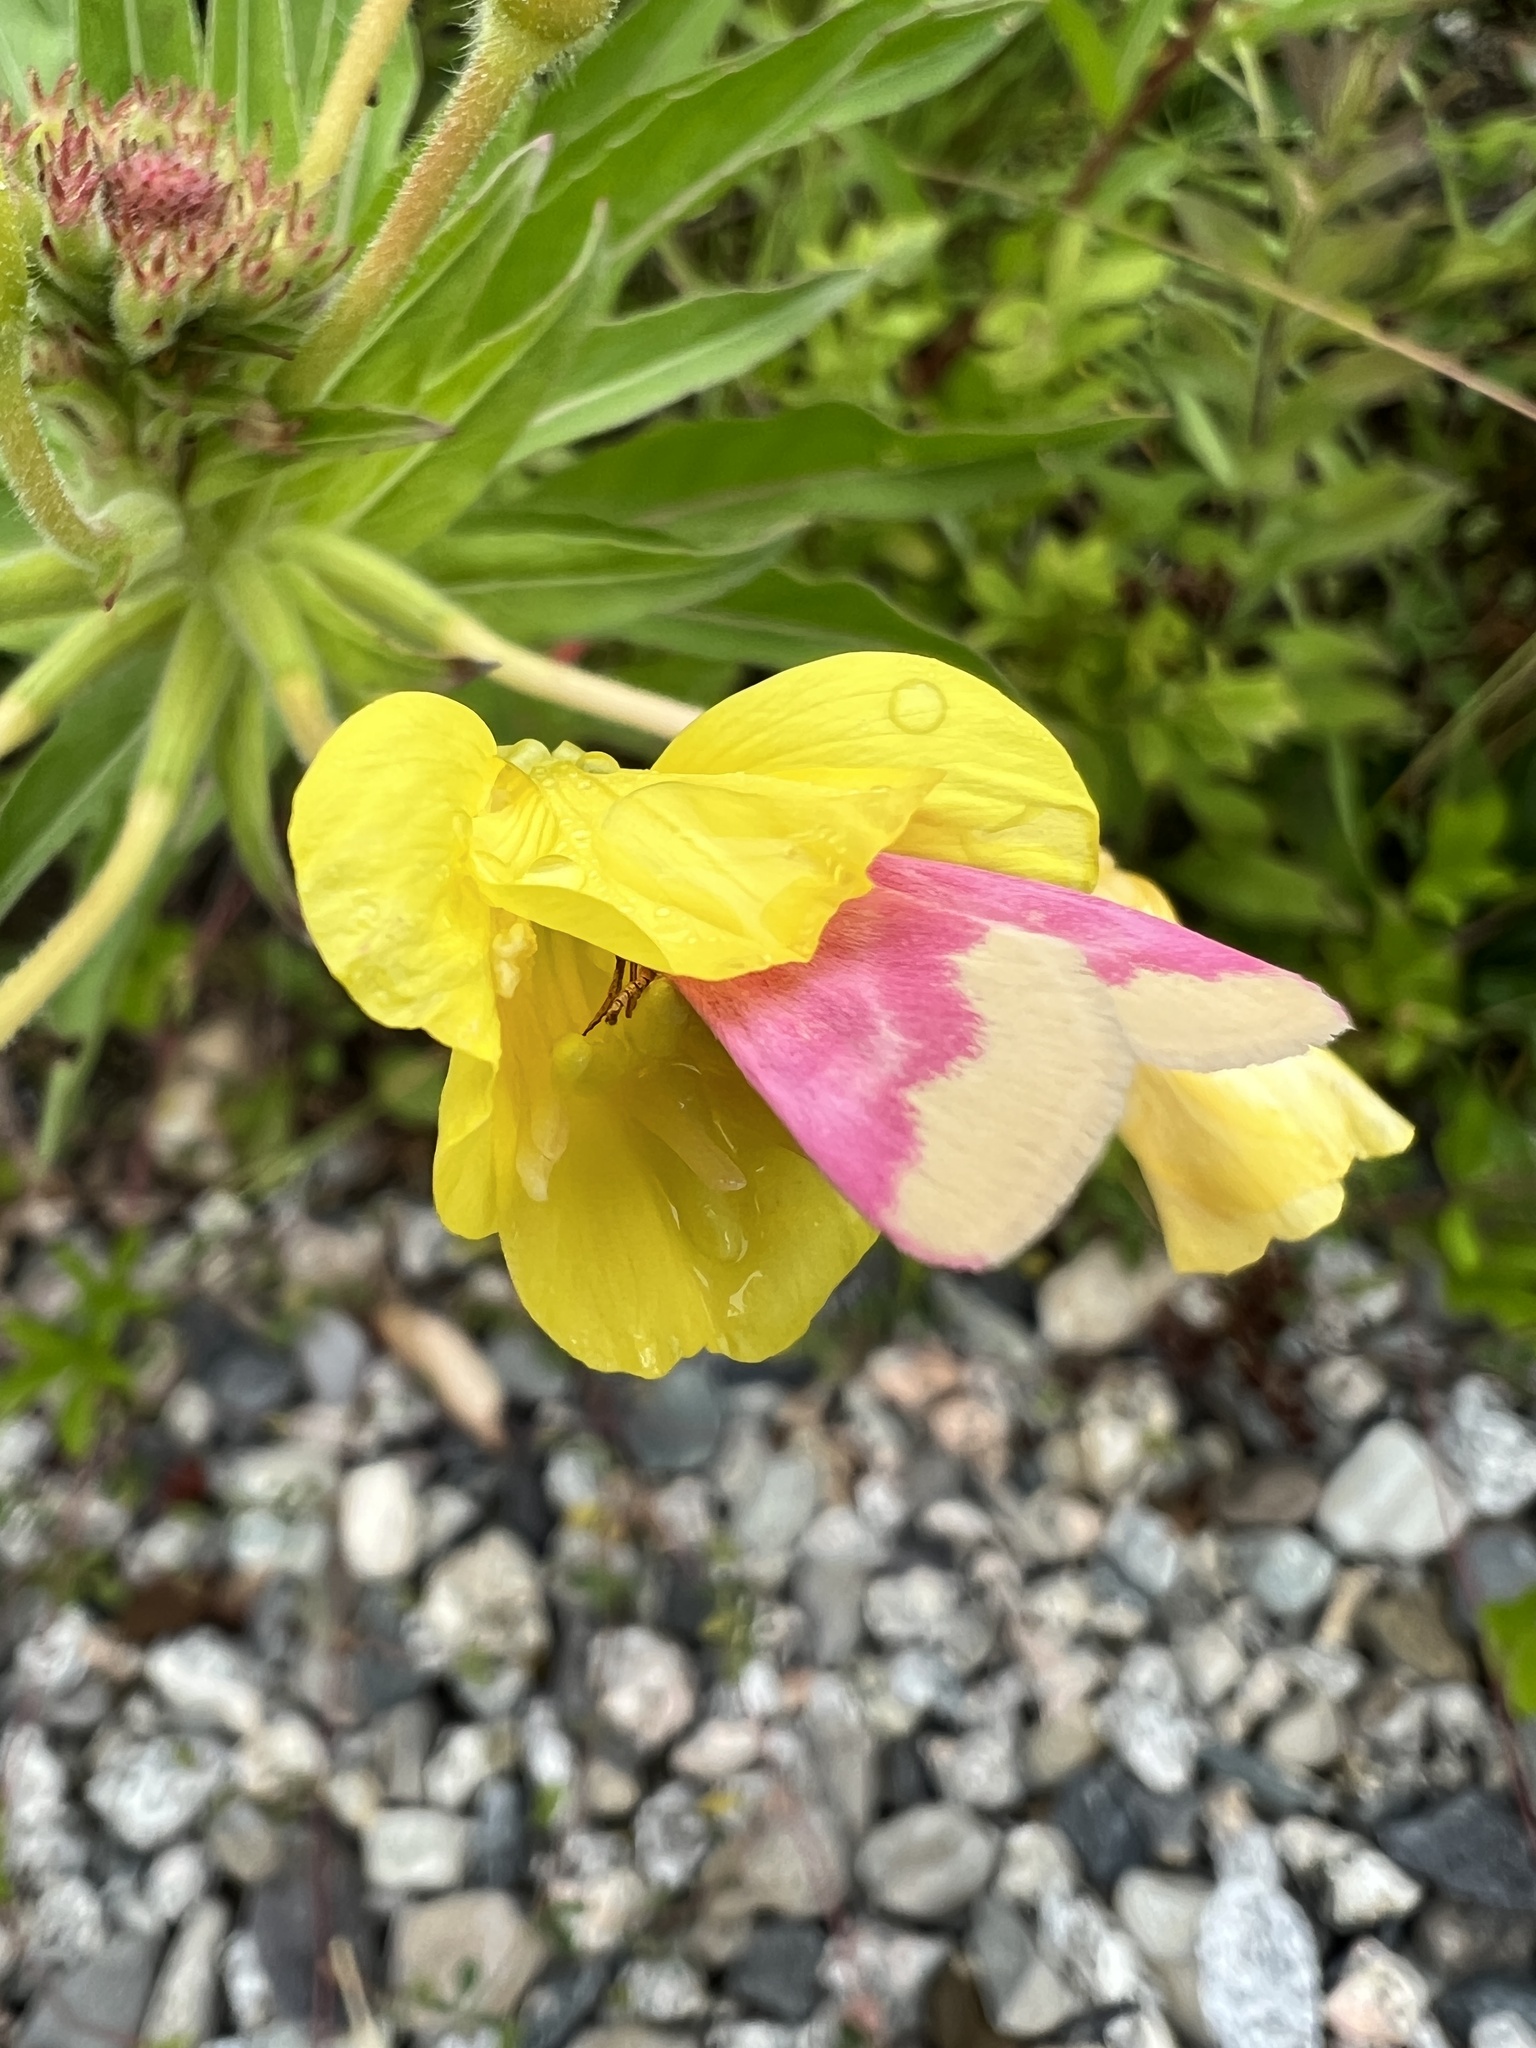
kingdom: Animalia
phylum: Arthropoda
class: Insecta
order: Lepidoptera
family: Noctuidae
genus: Schinia
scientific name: Schinia florida
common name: Primrose moth
